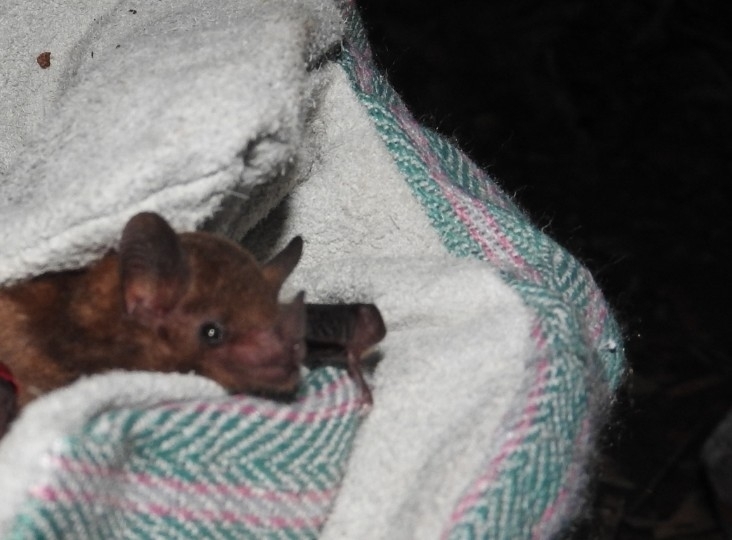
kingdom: Animalia
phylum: Chordata
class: Mammalia
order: Chiroptera
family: Phyllostomidae
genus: Glossophaga
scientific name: Glossophaga soricina
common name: Pallas's long-tongued bat
